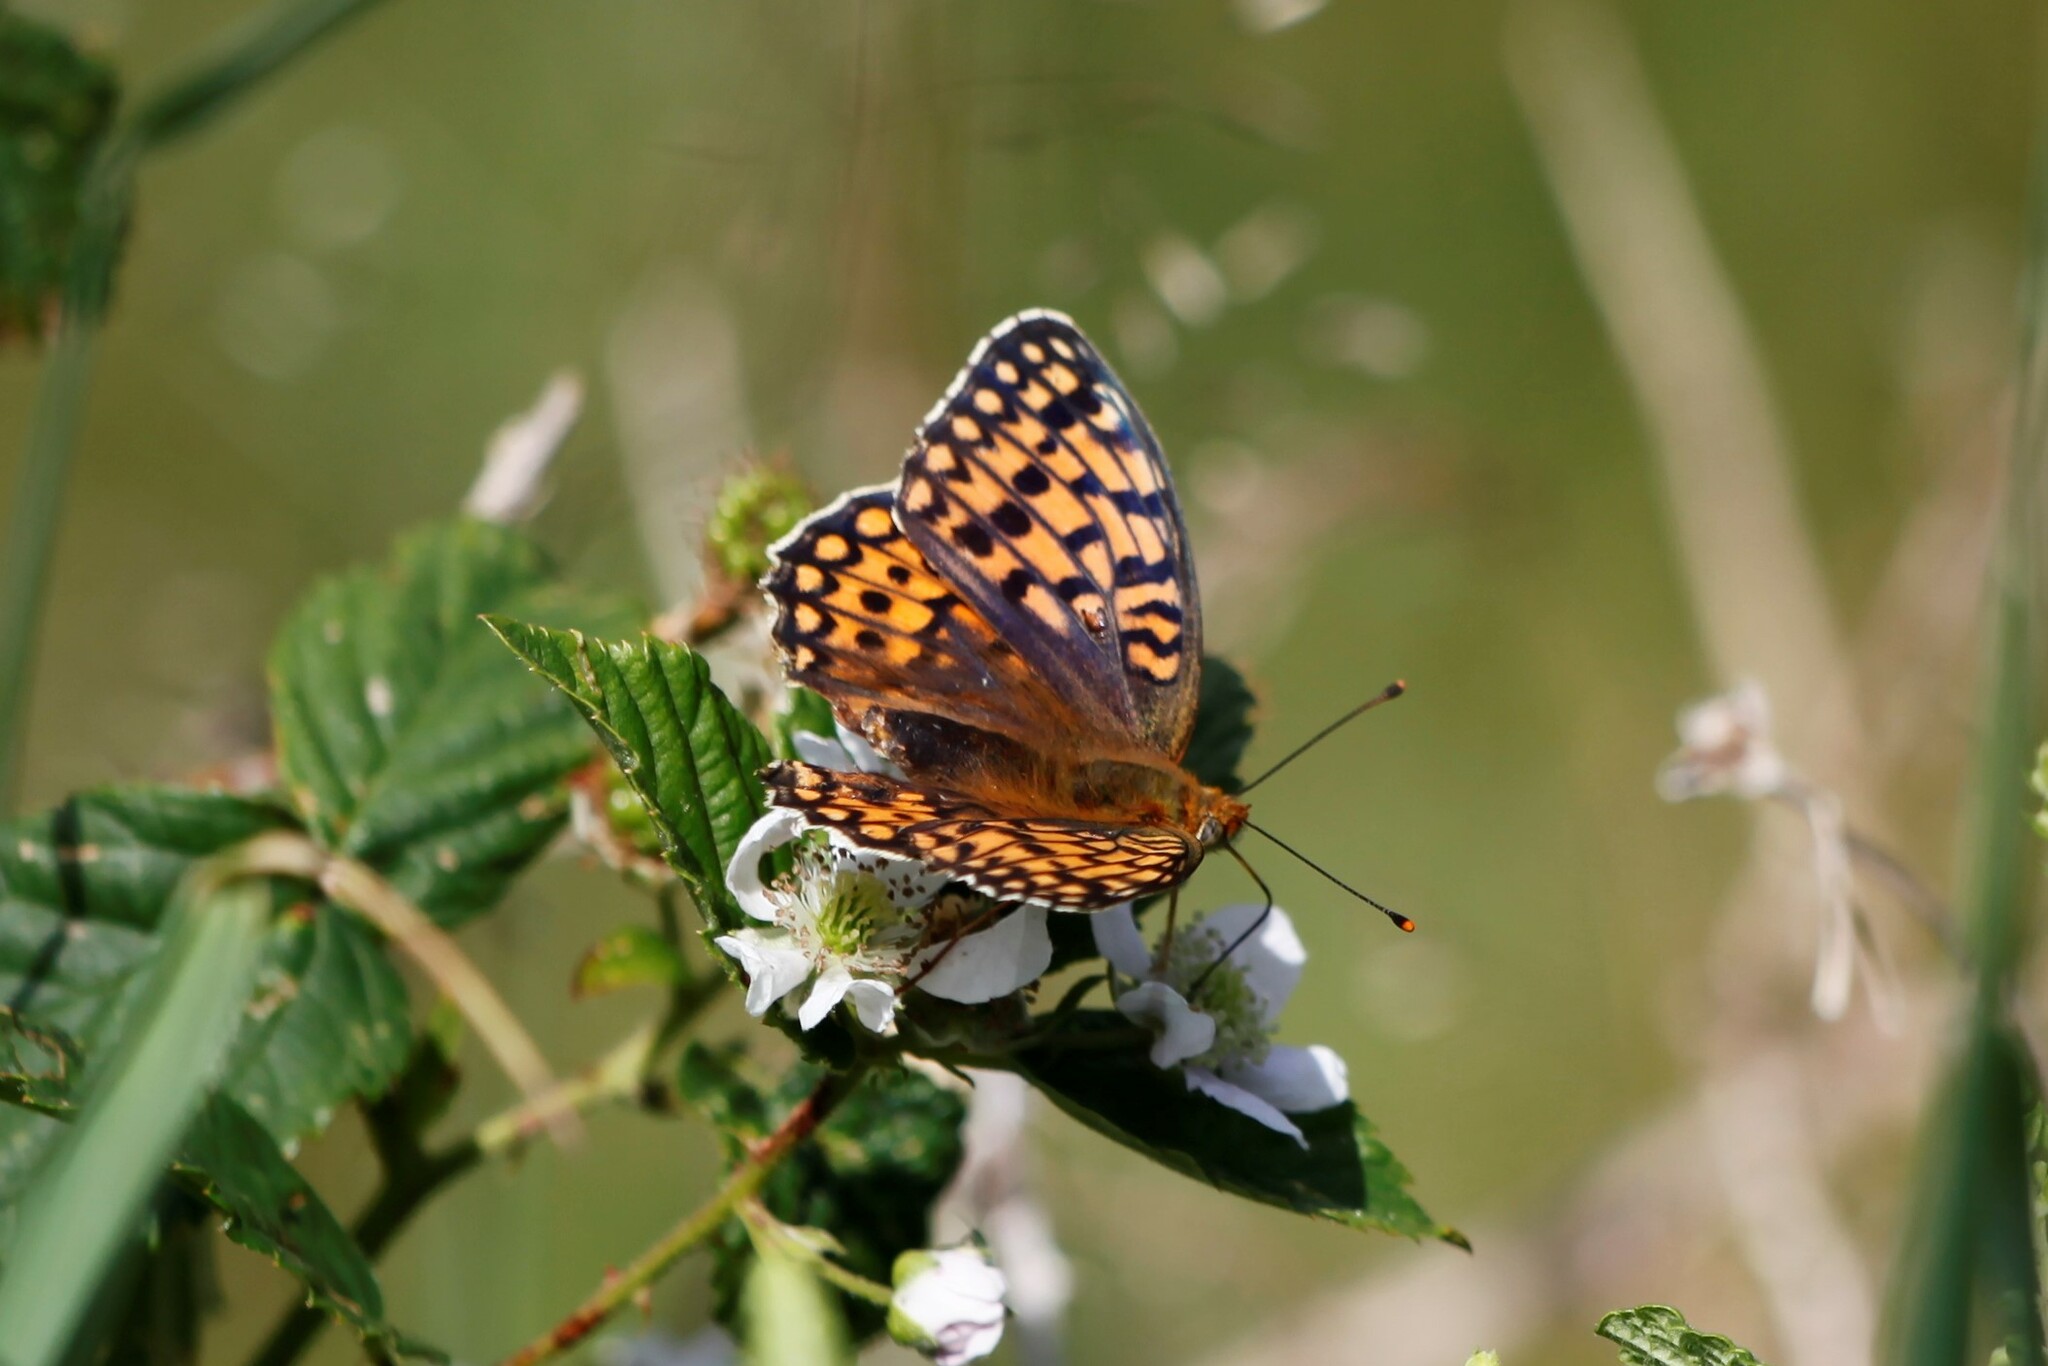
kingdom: Animalia
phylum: Arthropoda
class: Insecta
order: Lepidoptera
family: Nymphalidae
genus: Fabriciana
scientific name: Fabriciana niobe
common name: Niobe fritillary
